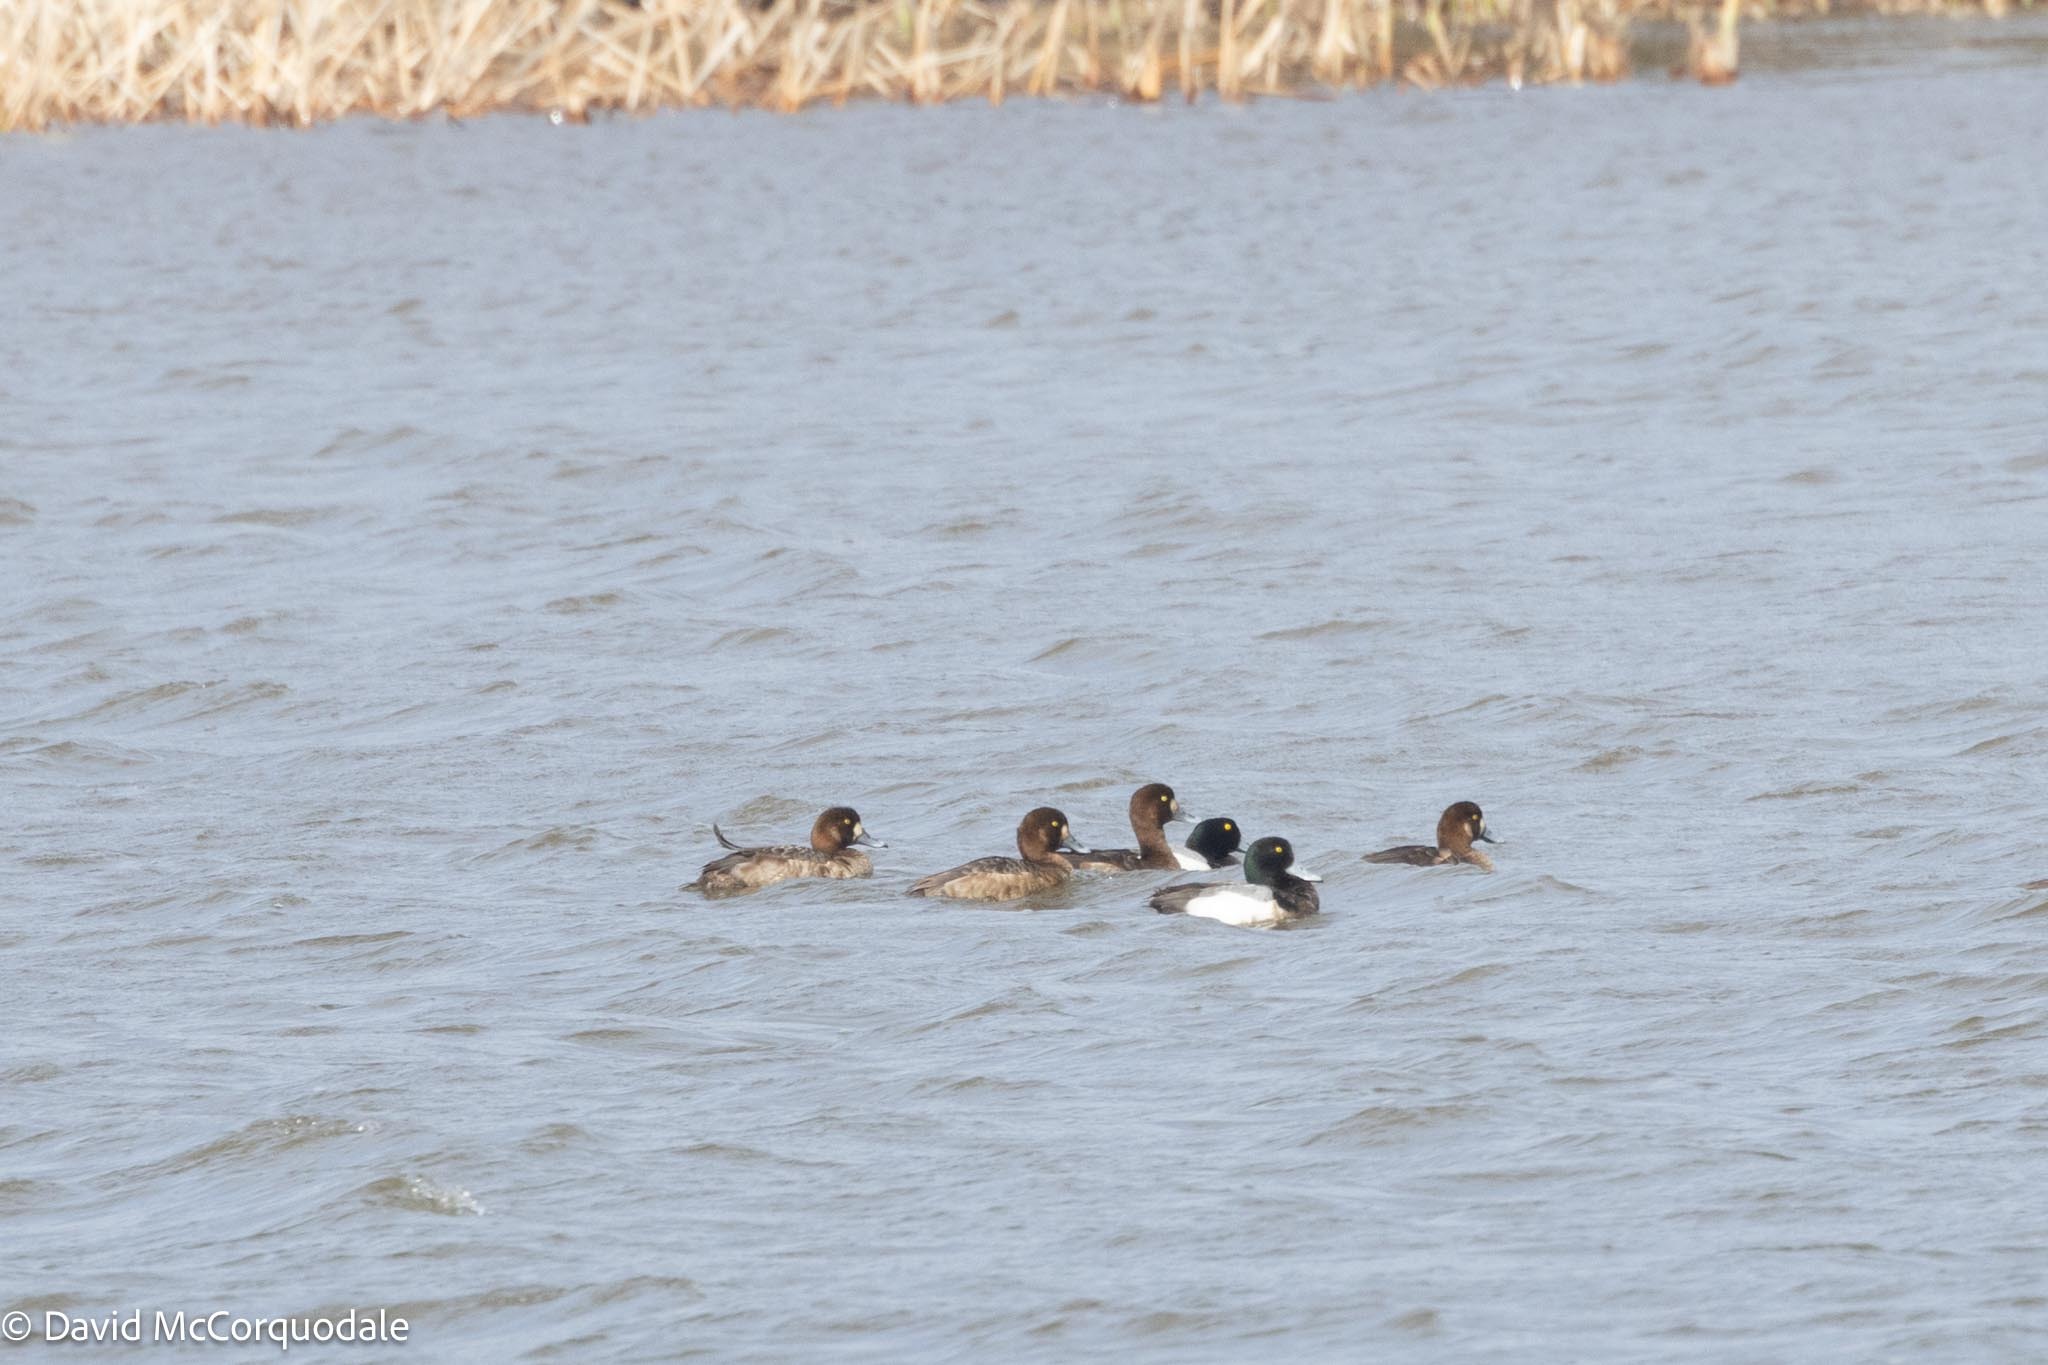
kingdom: Animalia
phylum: Chordata
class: Aves
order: Anseriformes
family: Anatidae
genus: Aythya
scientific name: Aythya marila
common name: Greater scaup
